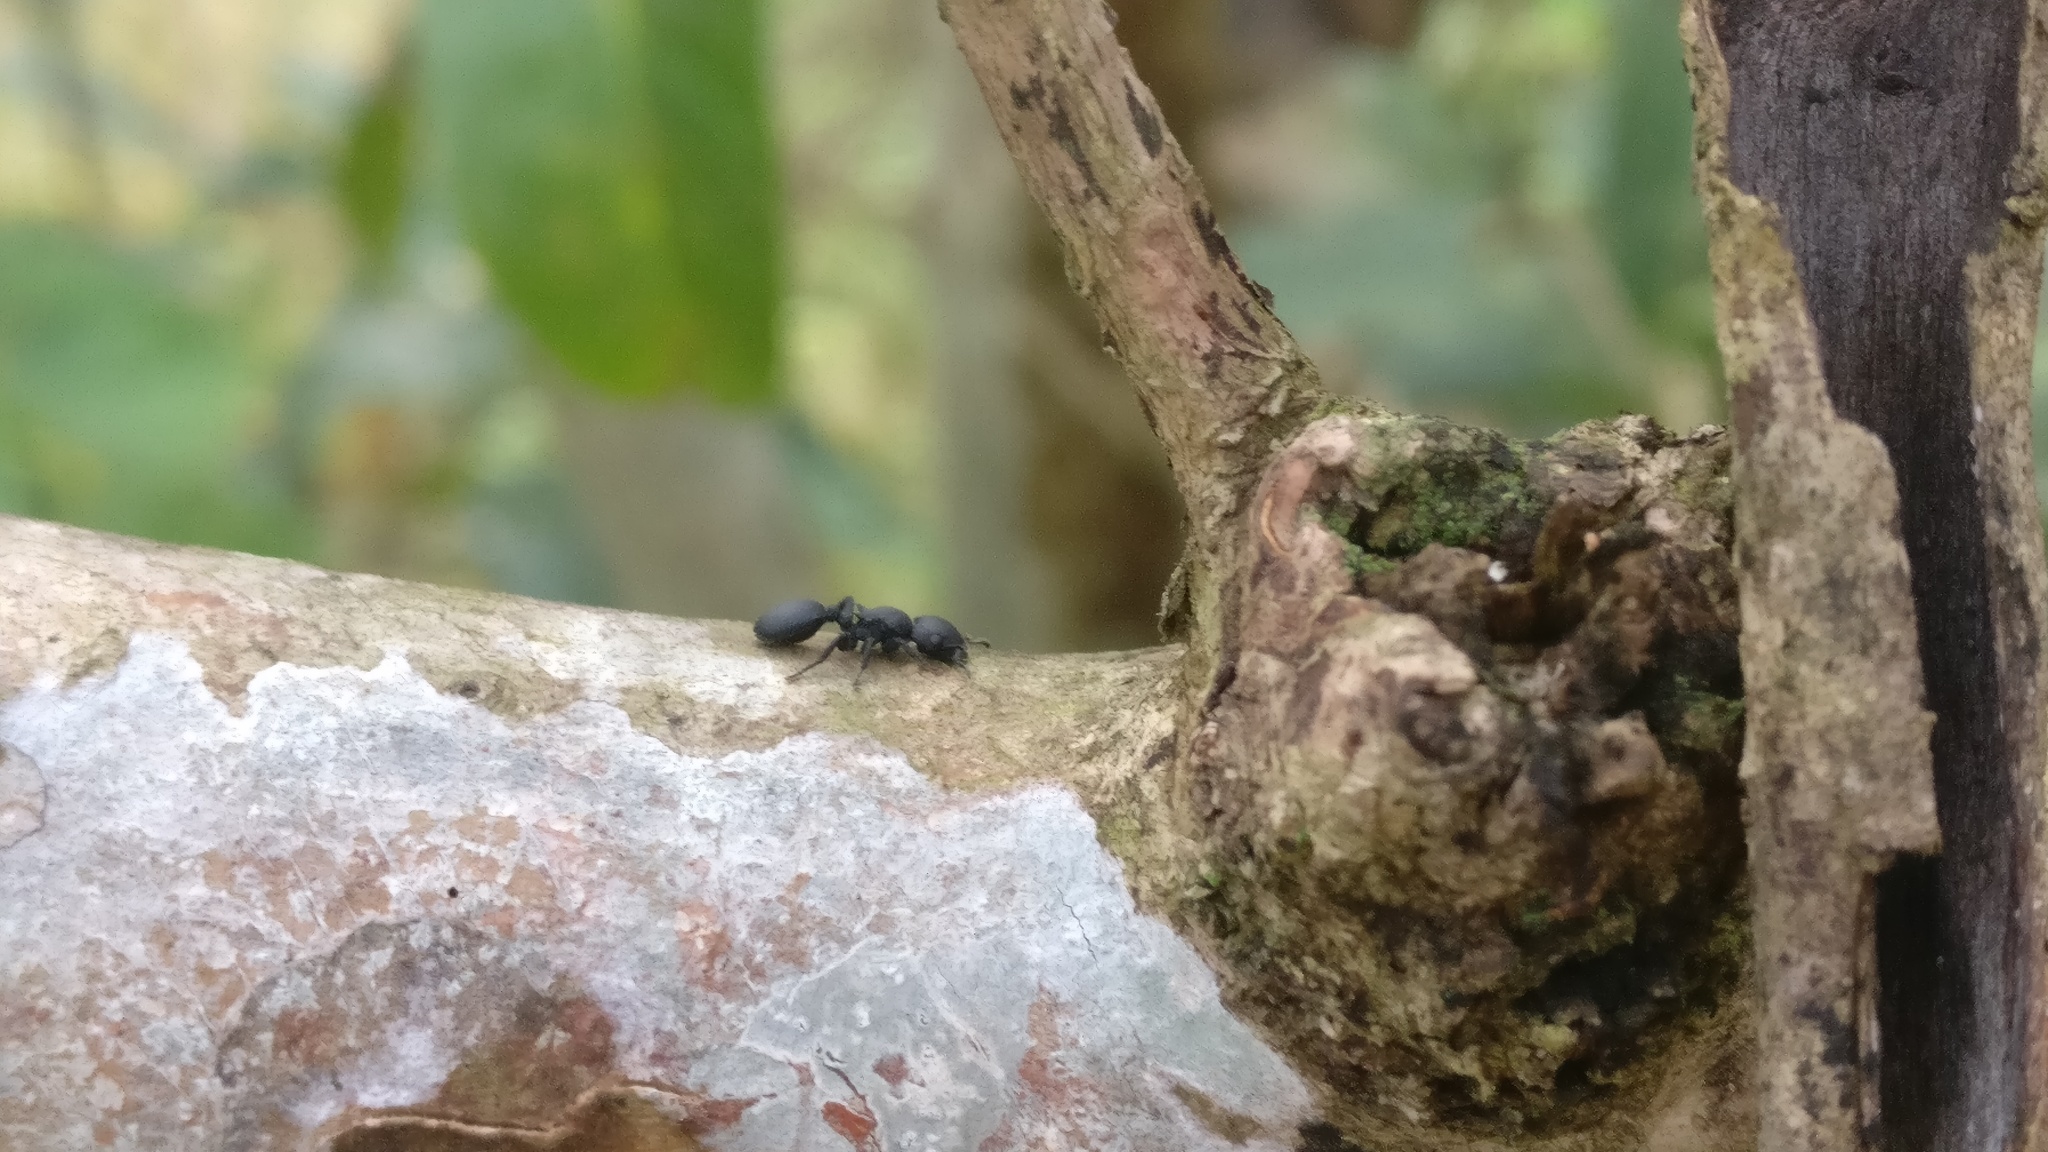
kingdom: Animalia
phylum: Arthropoda
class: Insecta
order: Hymenoptera
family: Formicidae
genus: Cataulacus
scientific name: Cataulacus latus
